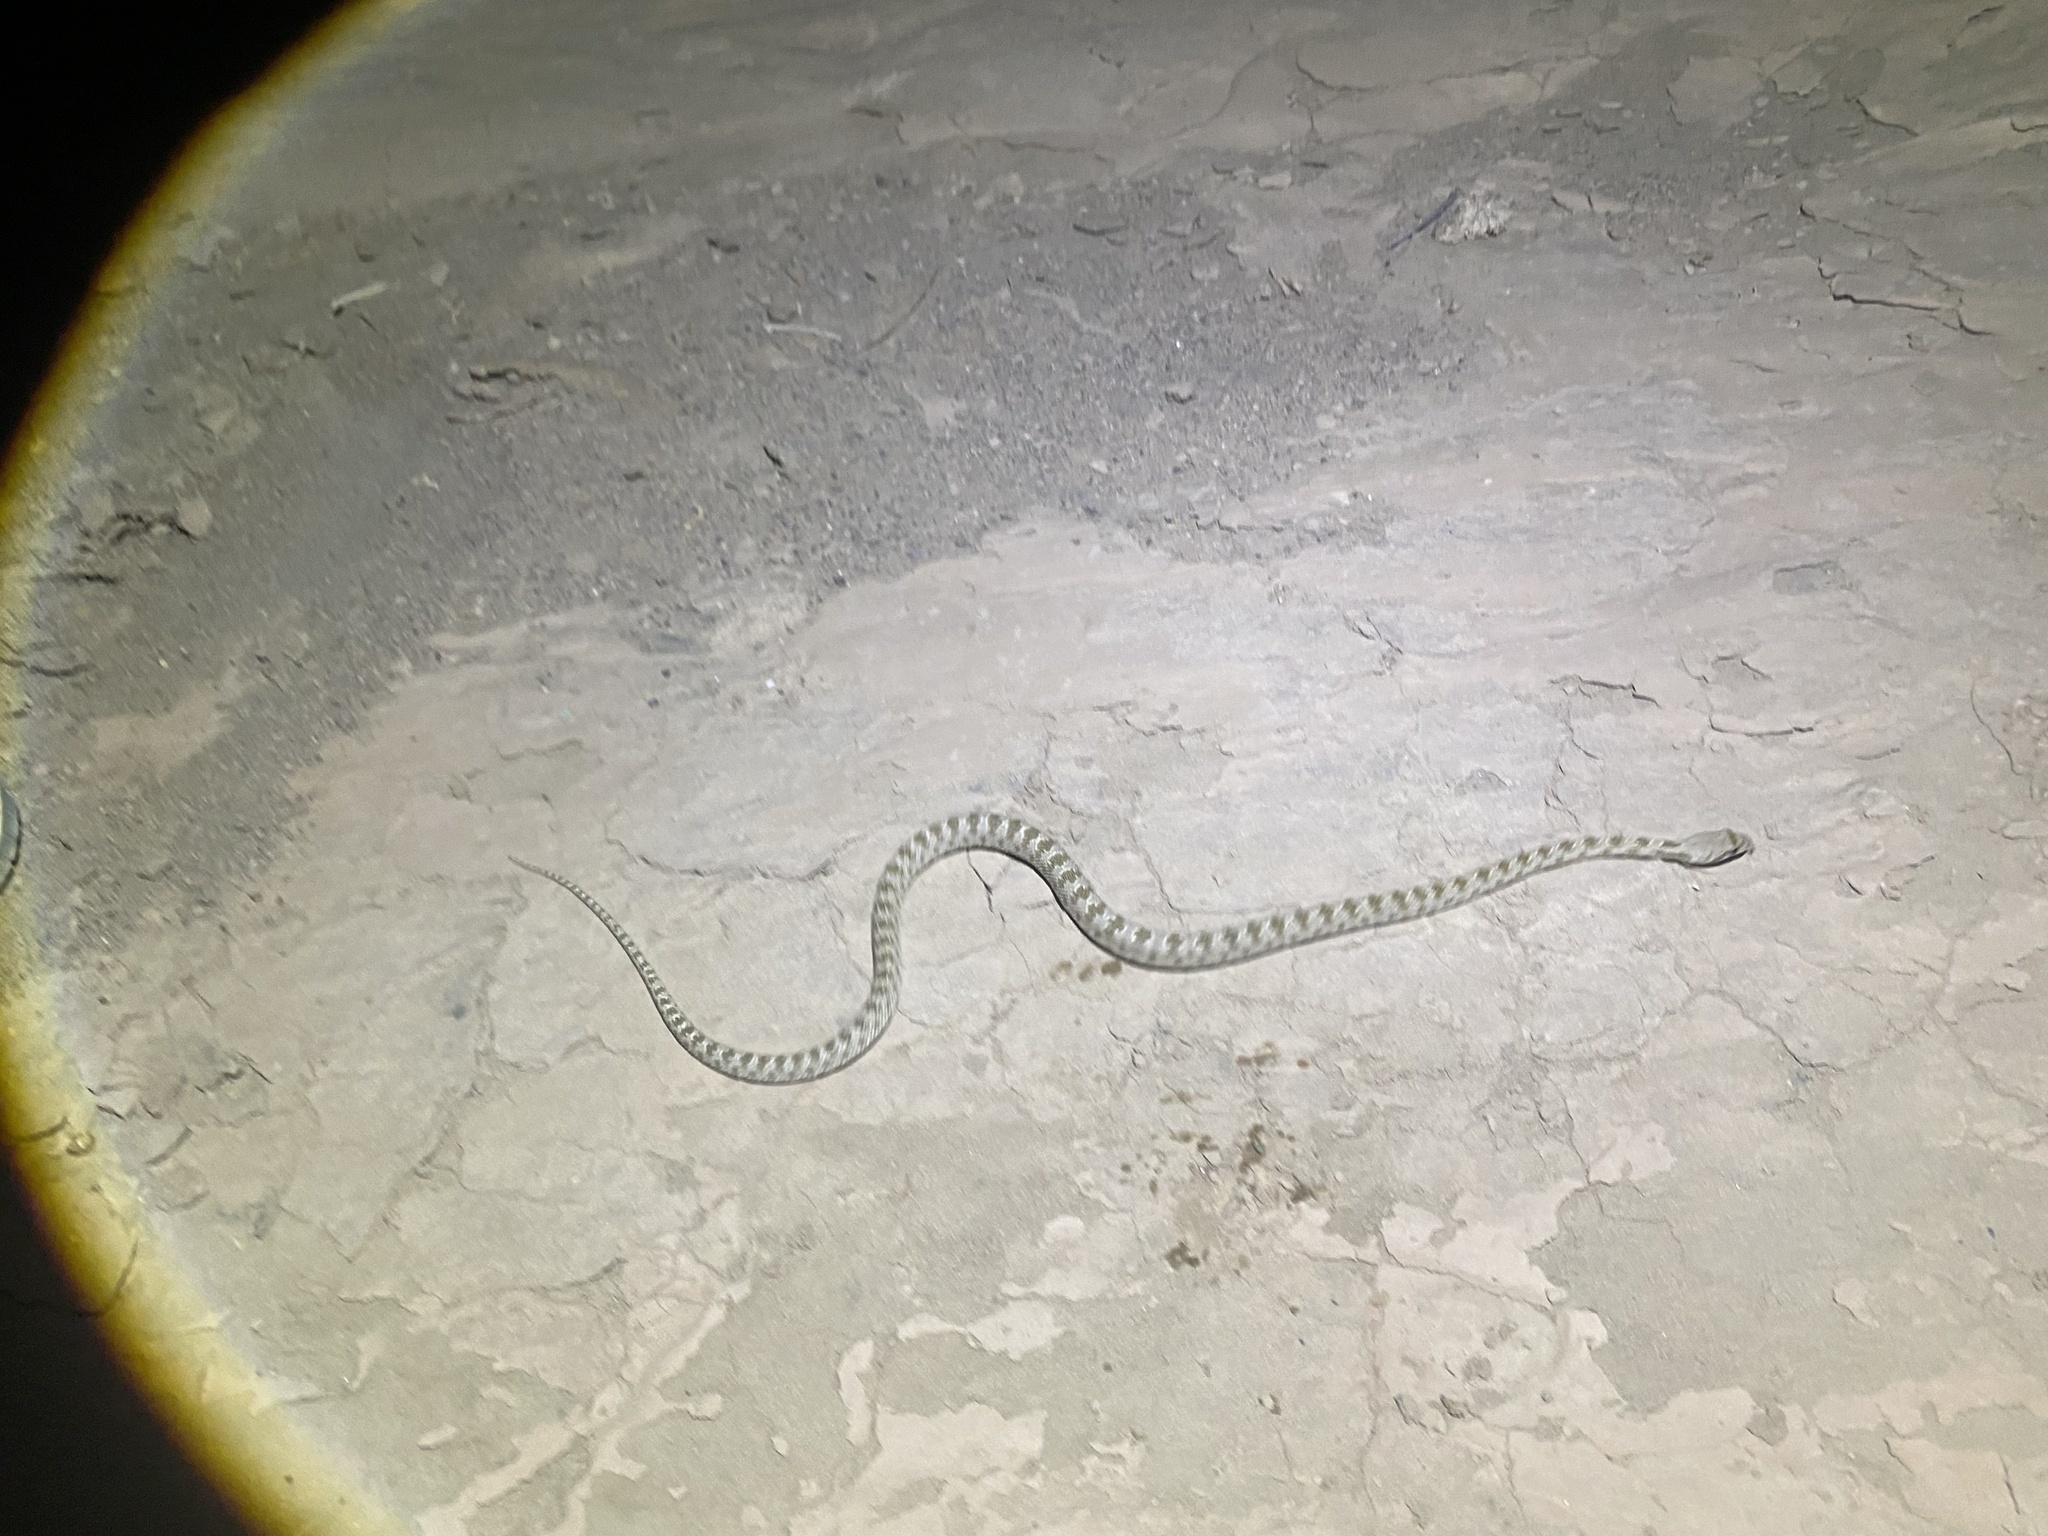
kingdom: Animalia
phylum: Chordata
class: Squamata
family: Colubridae
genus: Spalerosophis
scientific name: Spalerosophis diadema
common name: Diadem snake
